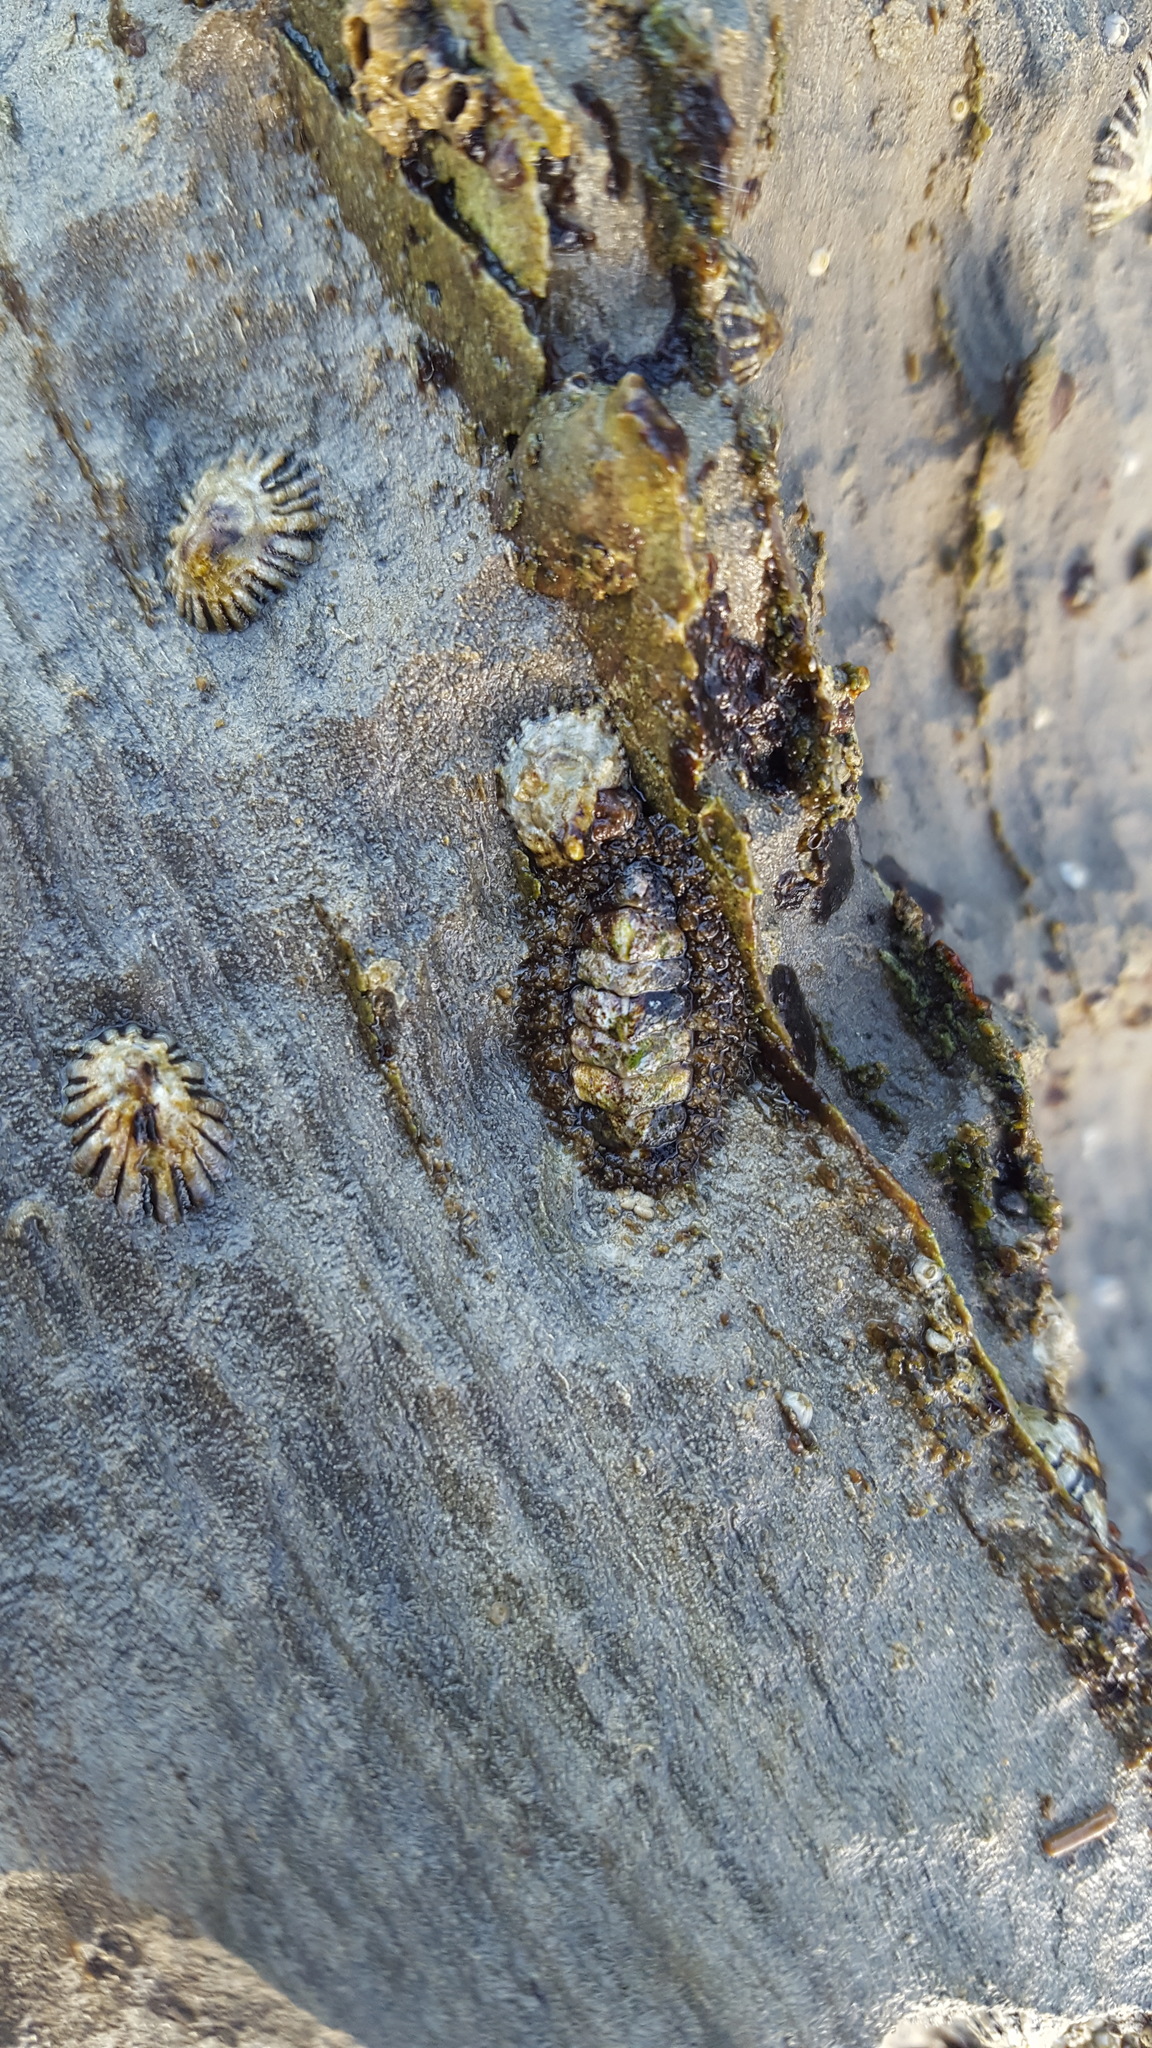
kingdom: Animalia
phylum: Mollusca
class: Polyplacophora
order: Chitonida
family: Mopaliidae
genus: Mopalia
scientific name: Mopalia muscosa
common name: Mossy chiton
